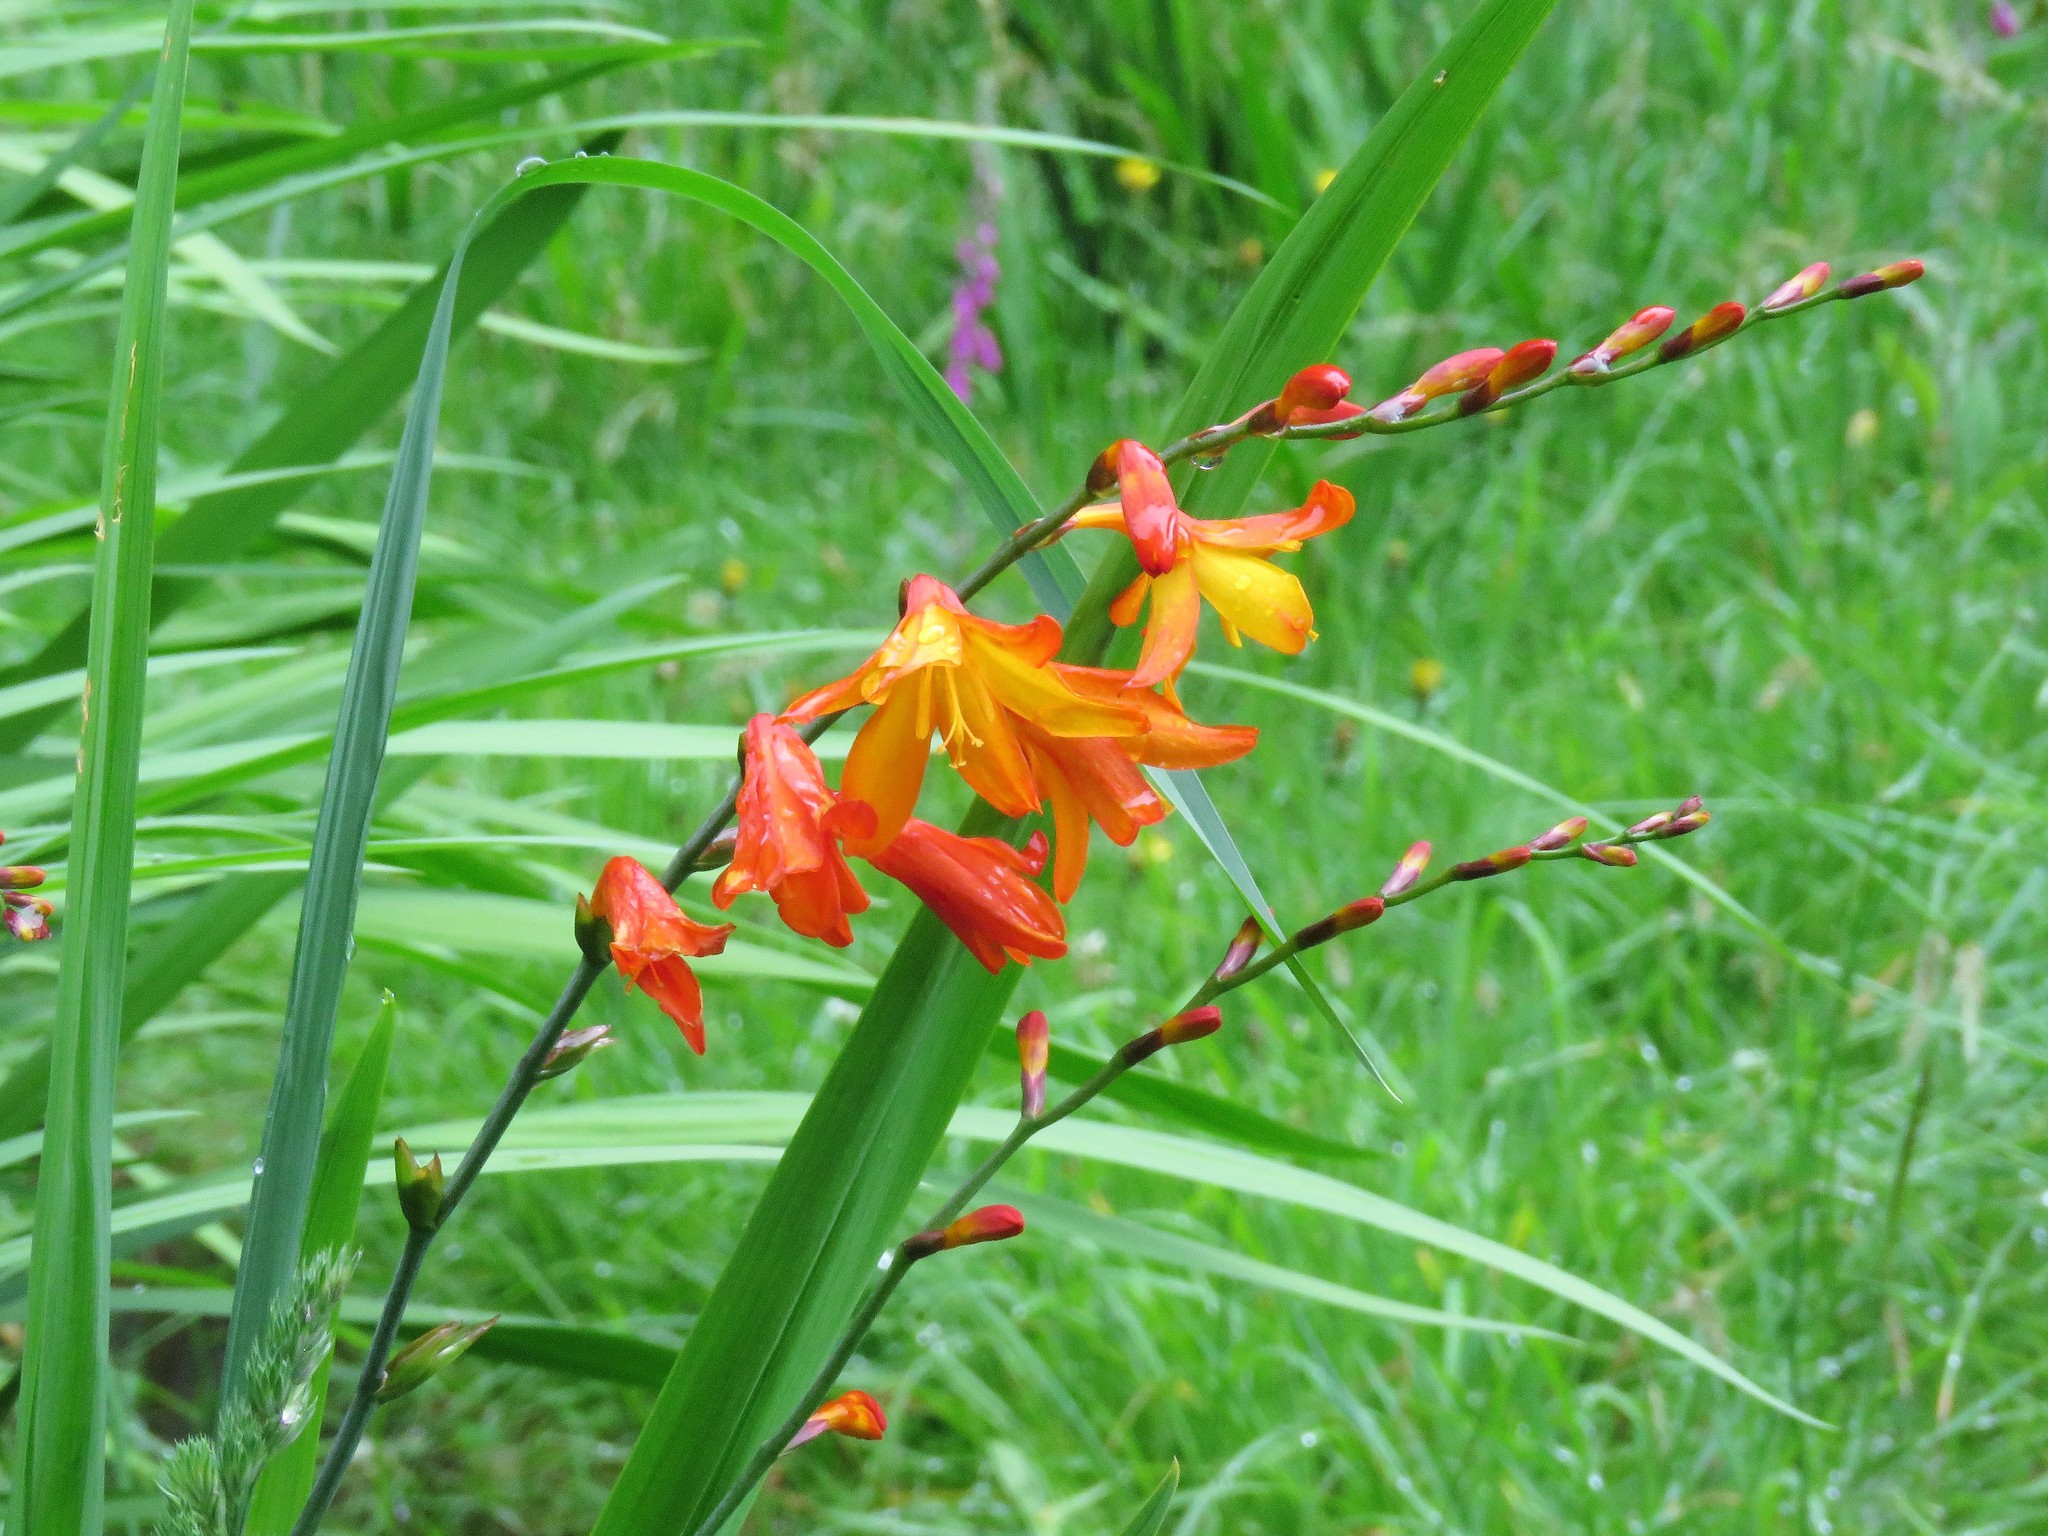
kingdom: Plantae
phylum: Tracheophyta
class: Liliopsida
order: Asparagales
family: Iridaceae
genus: Crocosmia
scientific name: Crocosmia crocosmiiflora
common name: Montbretia
